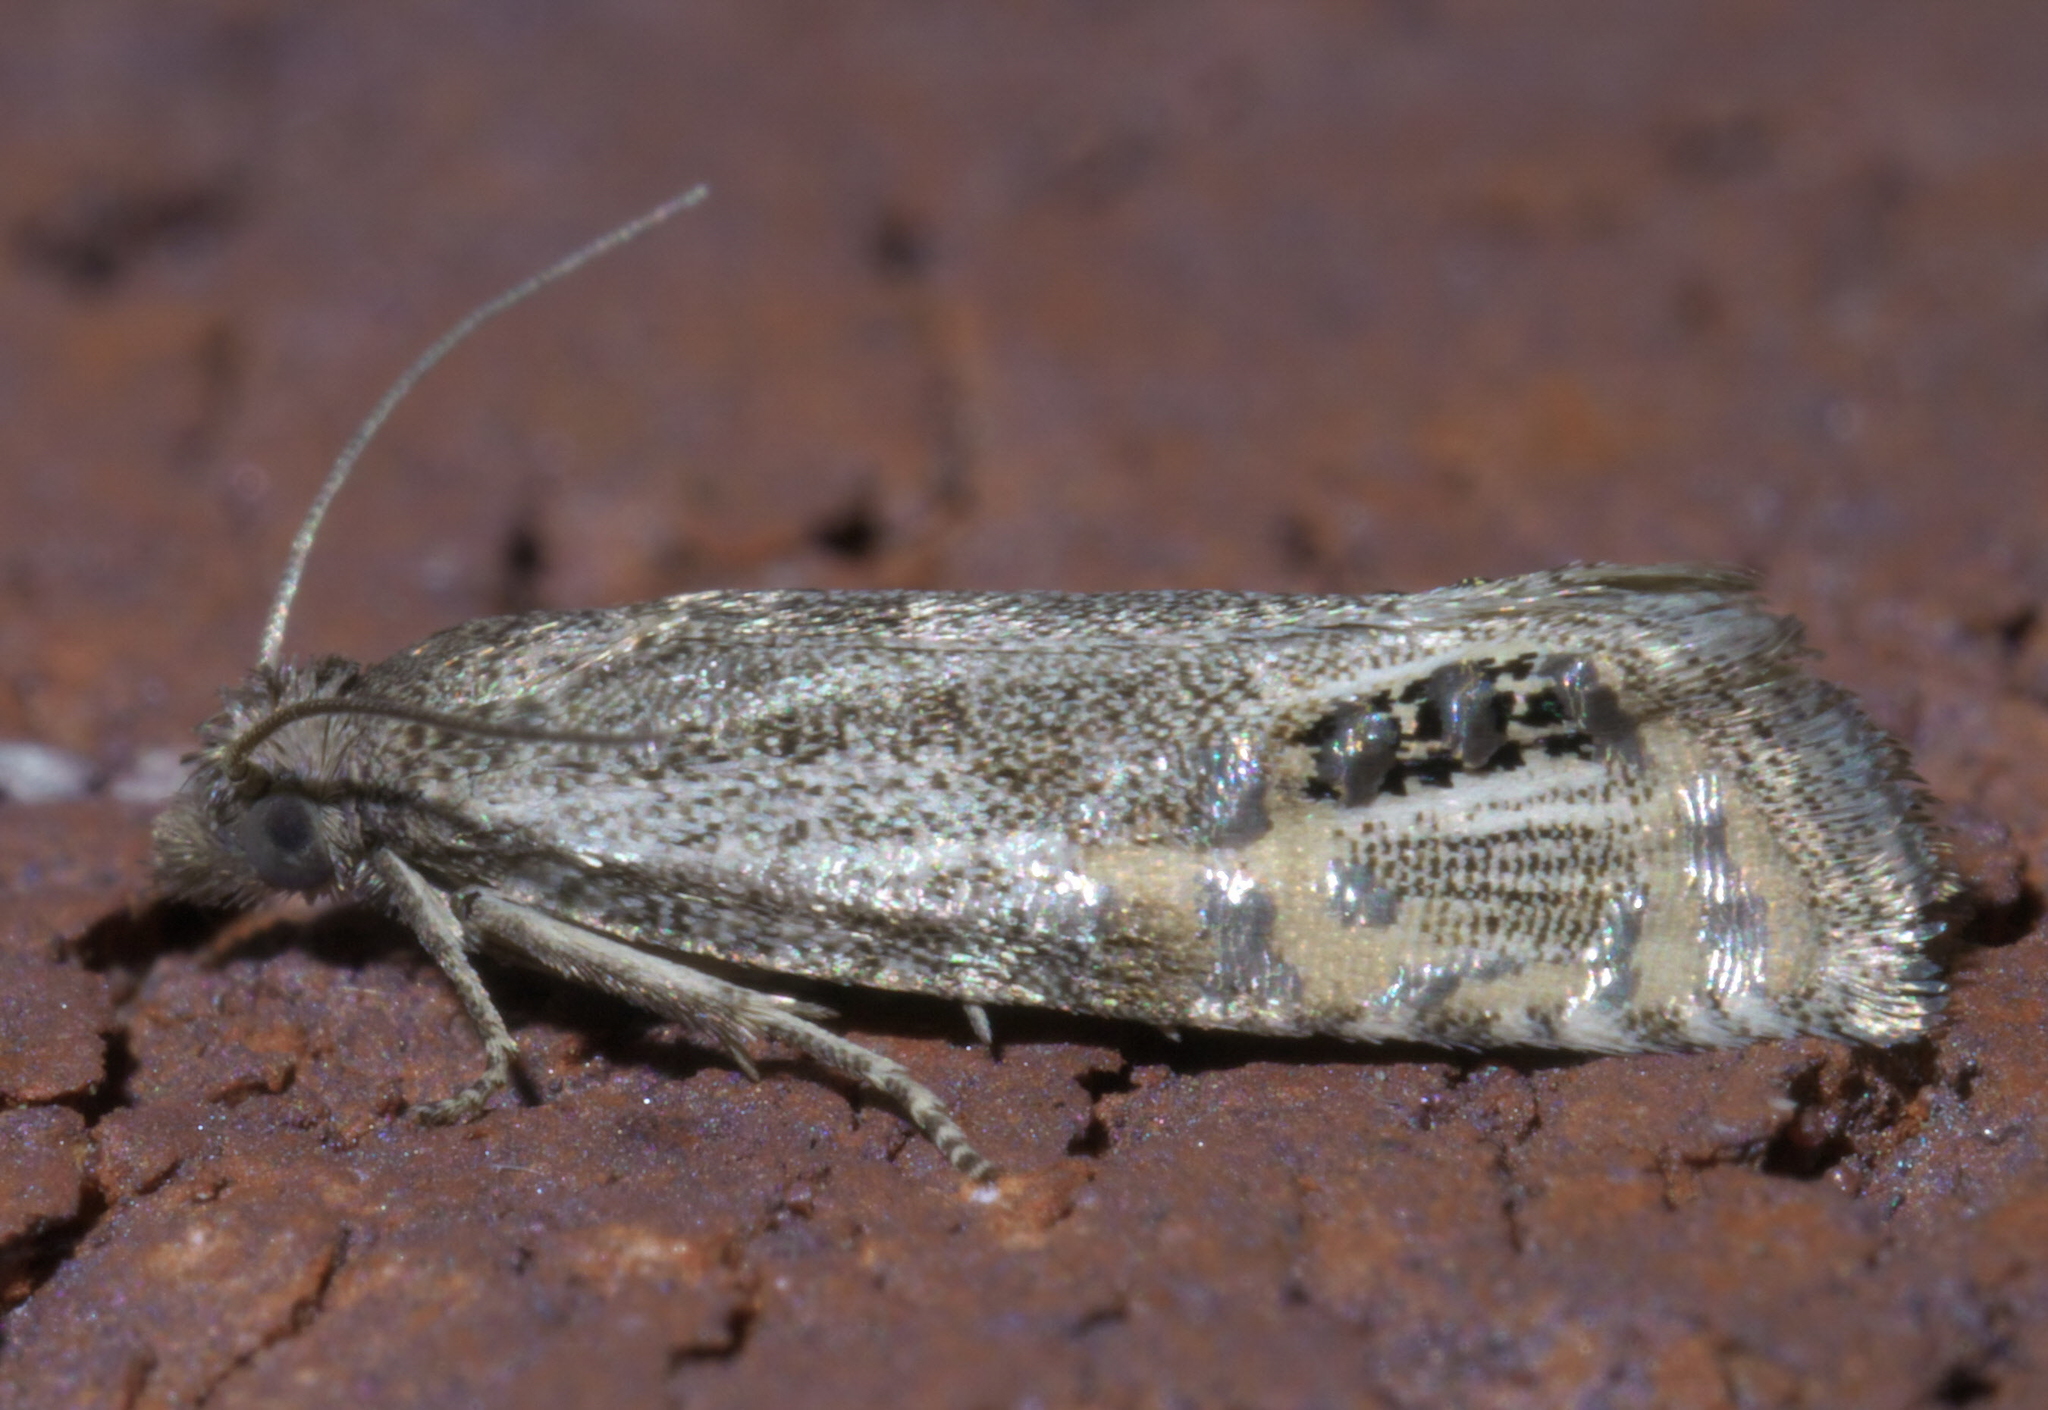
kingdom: Animalia
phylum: Arthropoda
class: Insecta
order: Lepidoptera
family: Tortricidae
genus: Pelochrista
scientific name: Pelochrista scintillana
